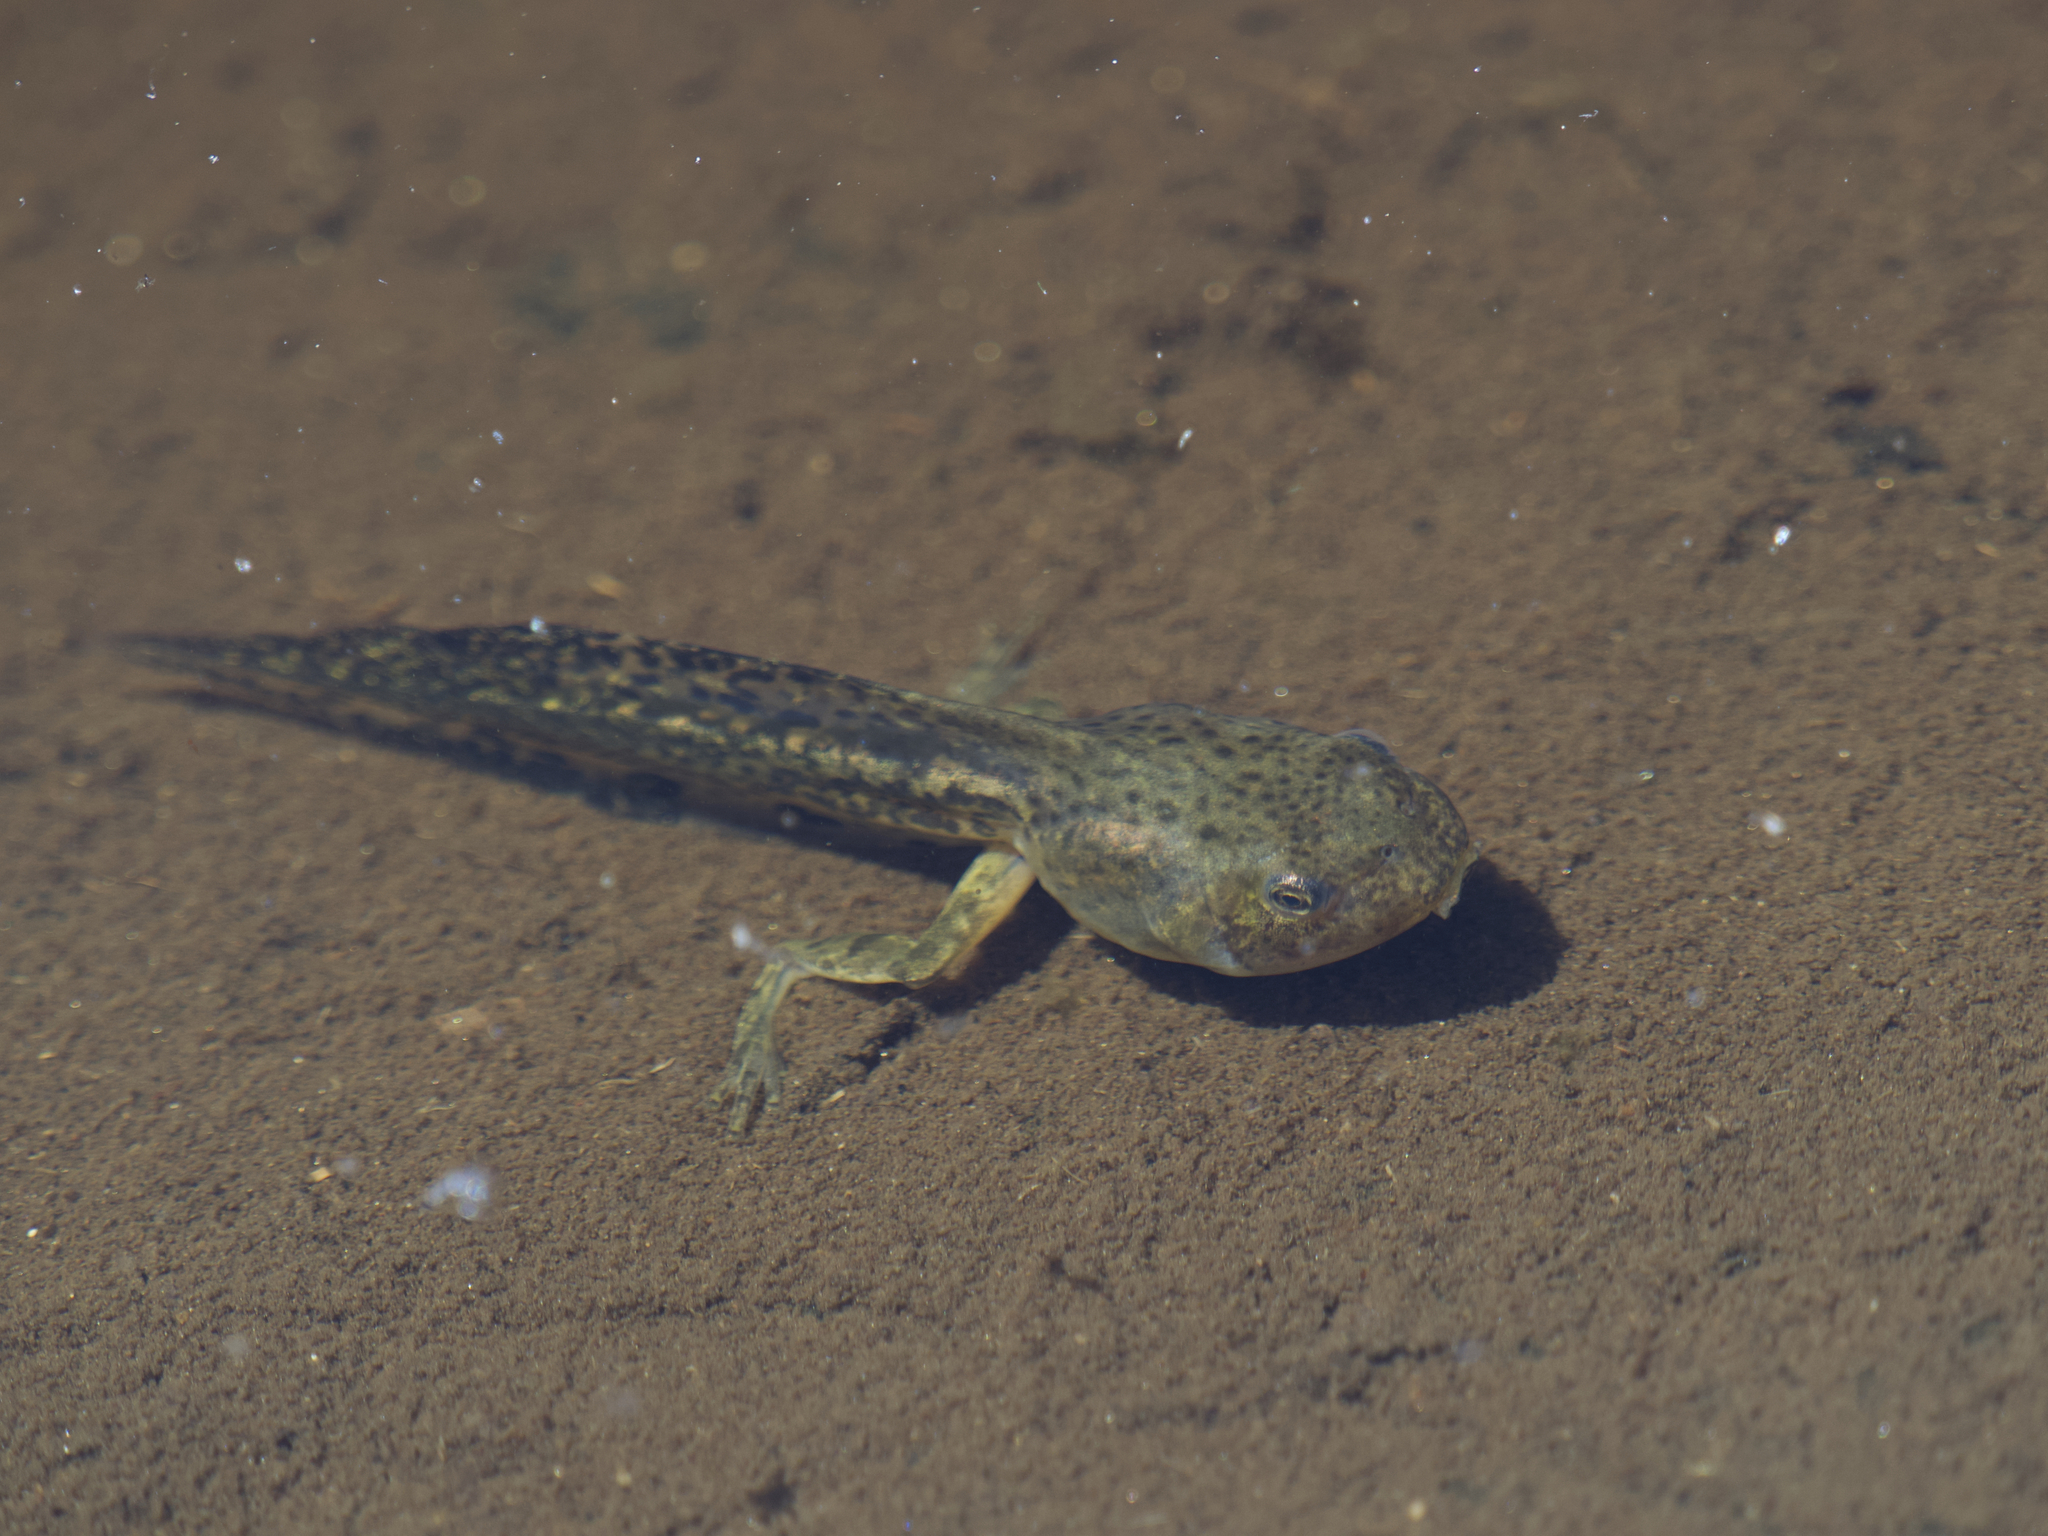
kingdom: Animalia
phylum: Chordata
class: Amphibia
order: Anura
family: Hylidae
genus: Pseudacris
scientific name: Pseudacris regilla
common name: Pacific chorus frog
